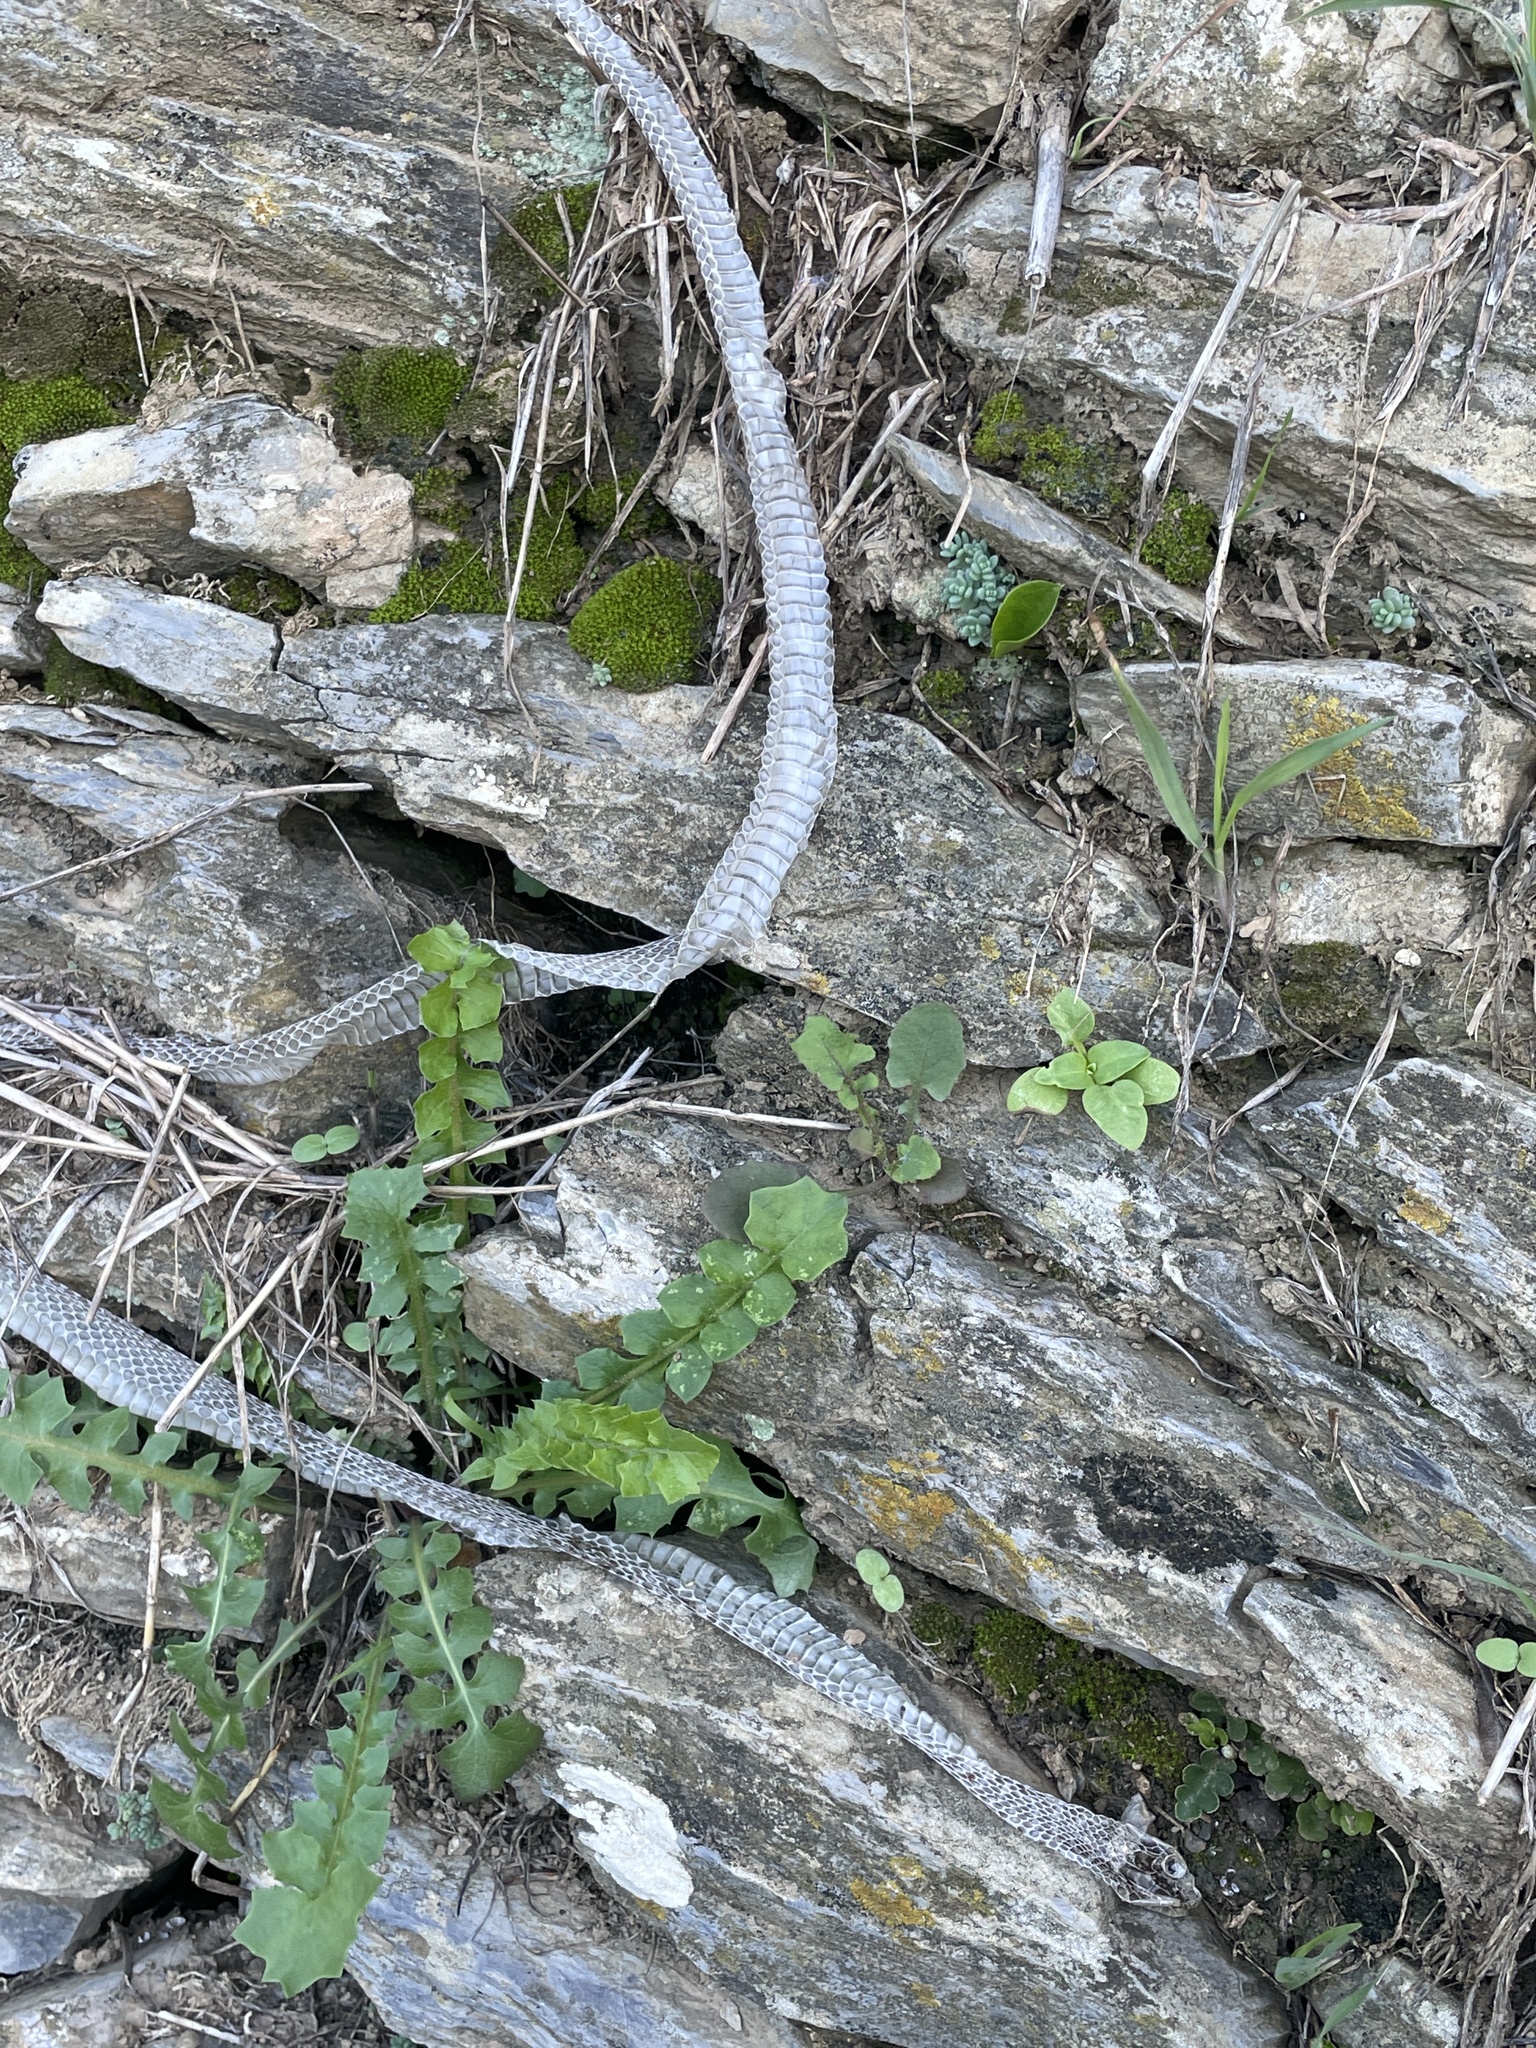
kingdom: Animalia
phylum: Chordata
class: Squamata
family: Colubridae
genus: Hierophis
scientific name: Hierophis viridiflavus
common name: Green whip snake
